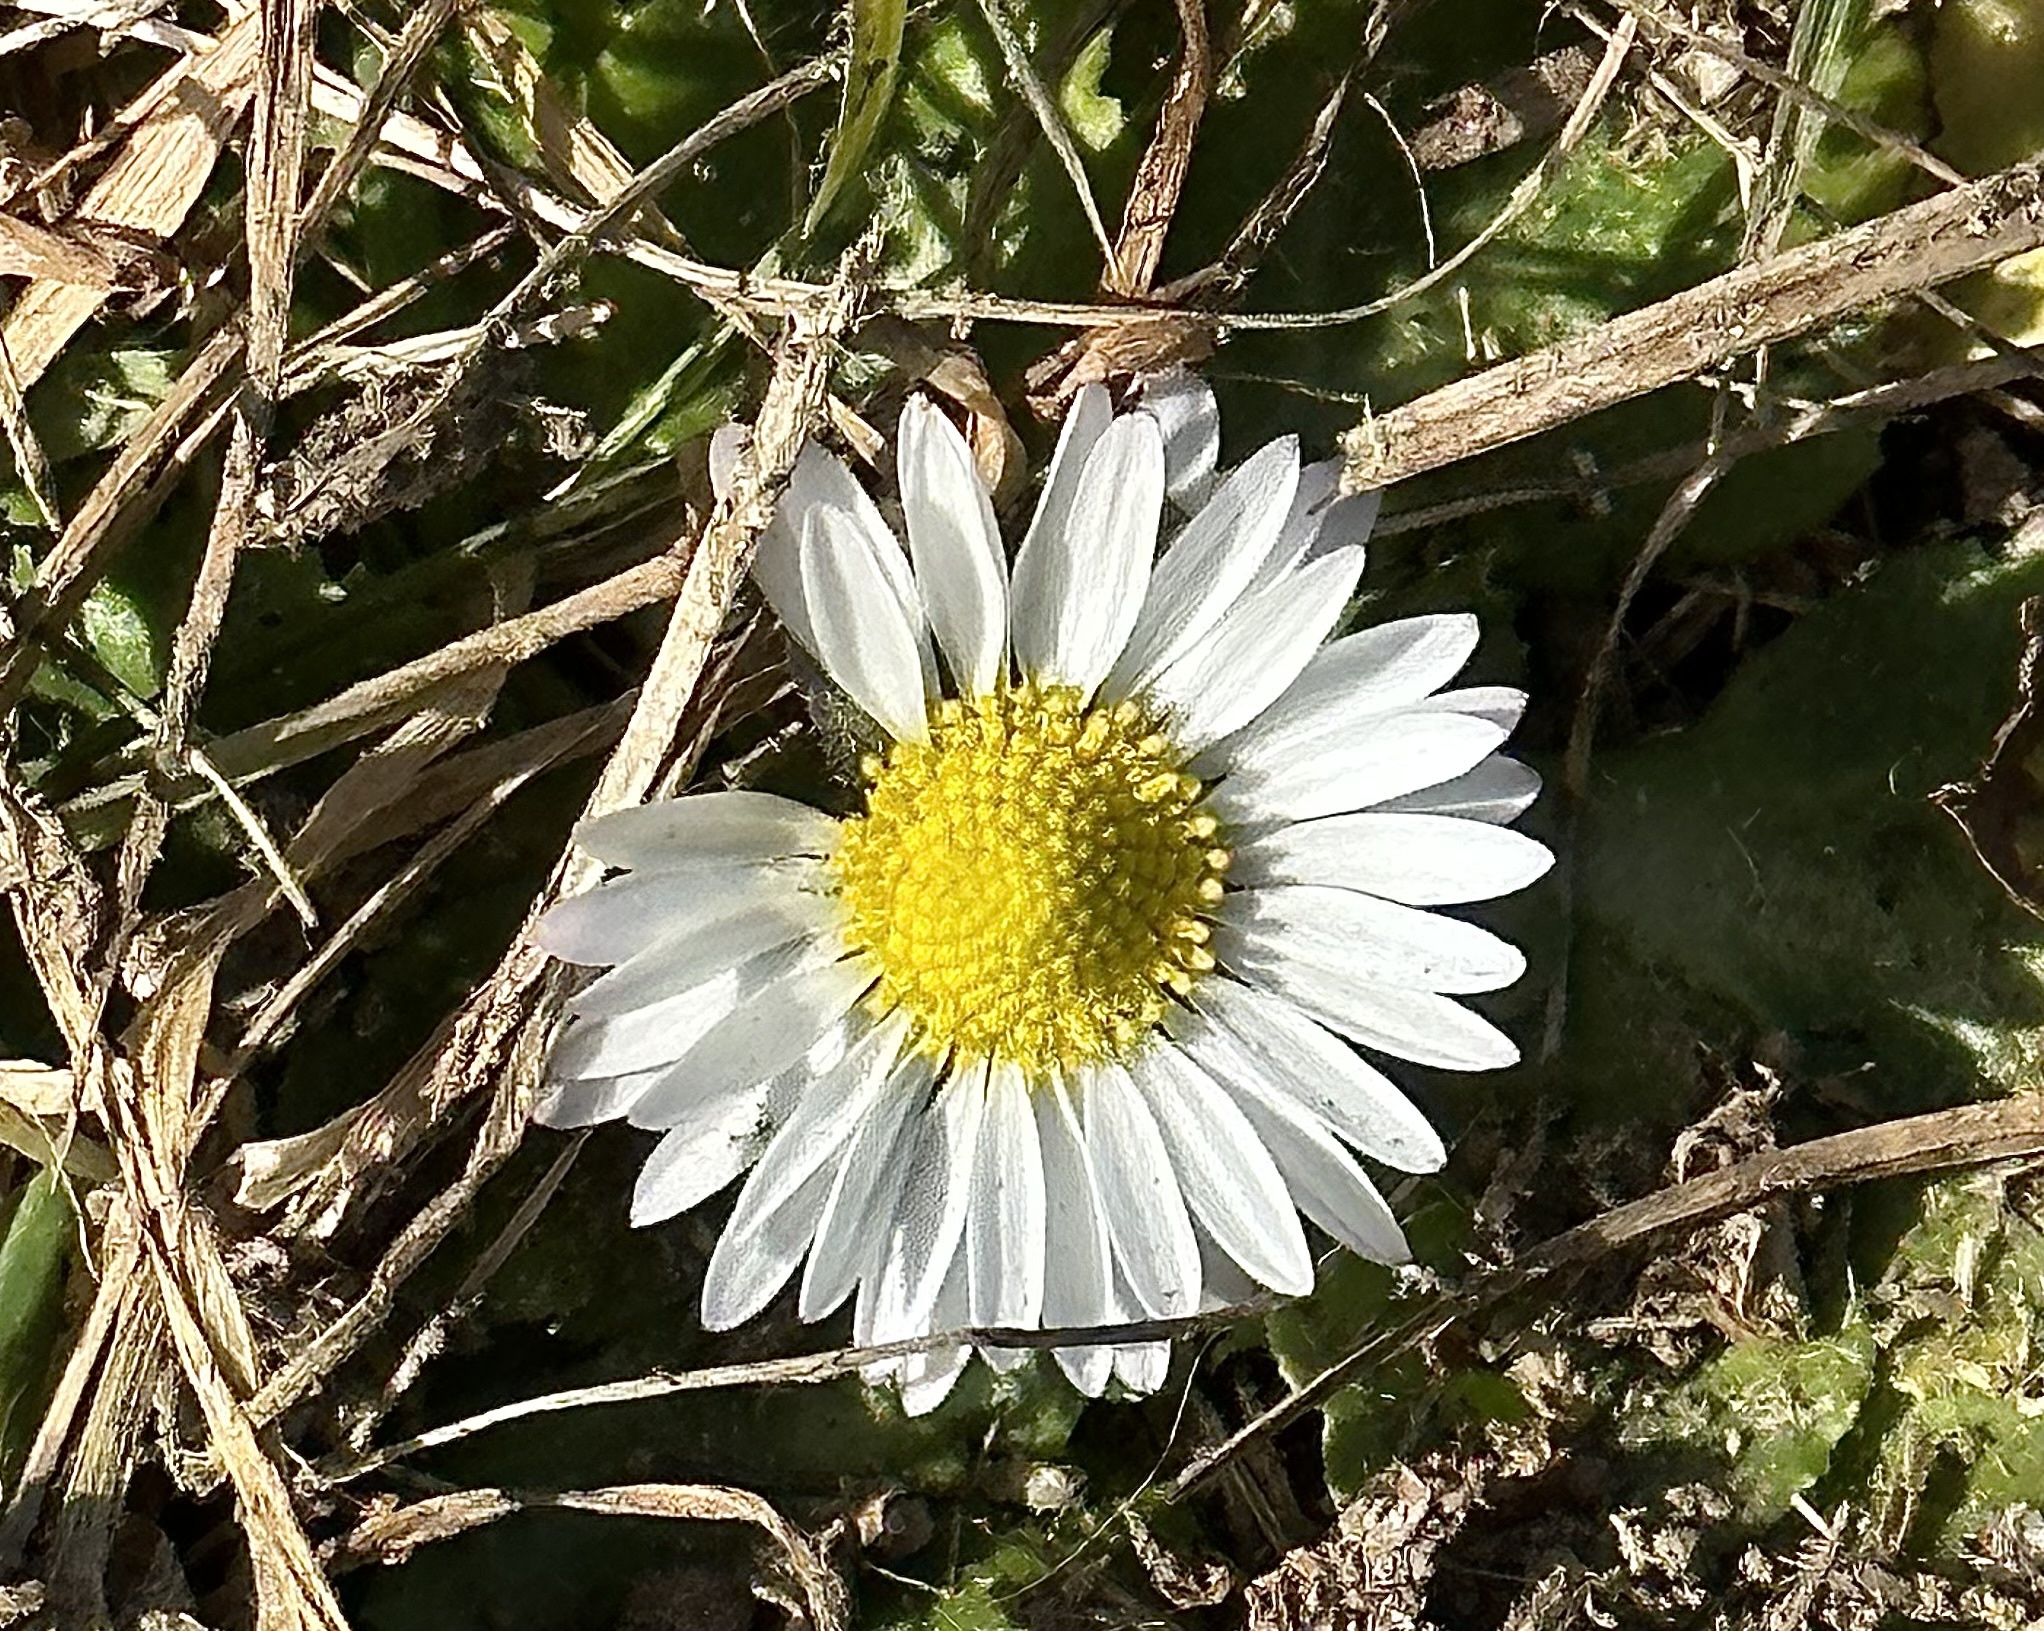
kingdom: Plantae
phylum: Tracheophyta
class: Magnoliopsida
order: Asterales
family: Asteraceae
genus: Bellis
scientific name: Bellis perennis
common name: Lawndaisy
